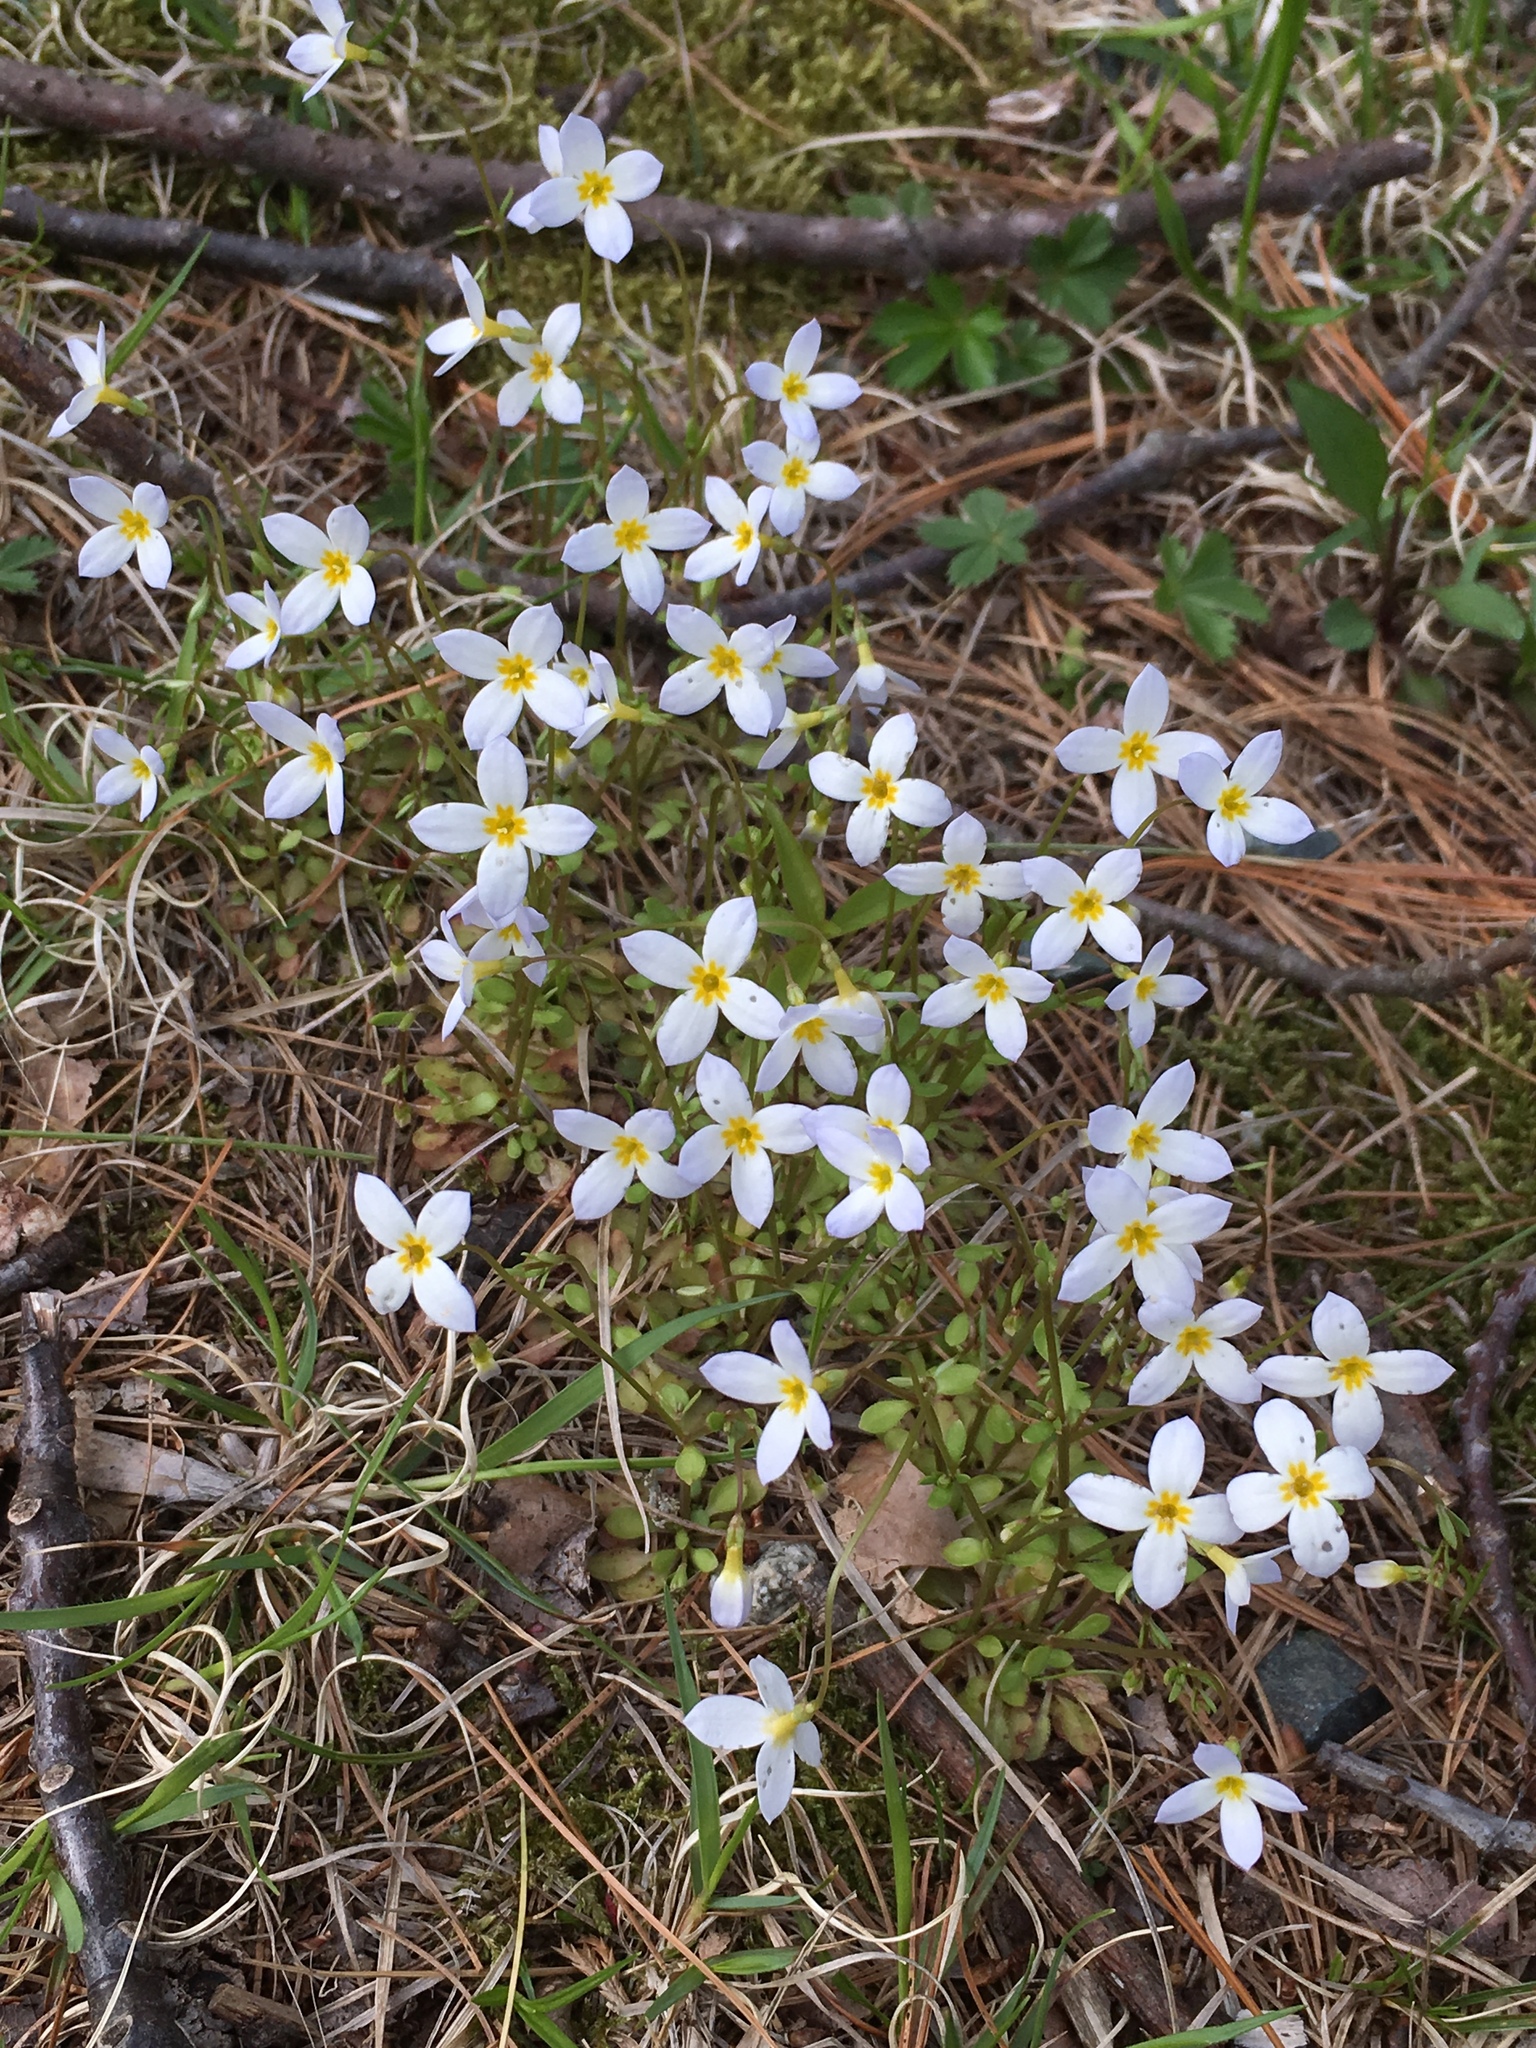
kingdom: Plantae
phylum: Tracheophyta
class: Magnoliopsida
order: Gentianales
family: Rubiaceae
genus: Houstonia
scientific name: Houstonia caerulea
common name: Bluets
